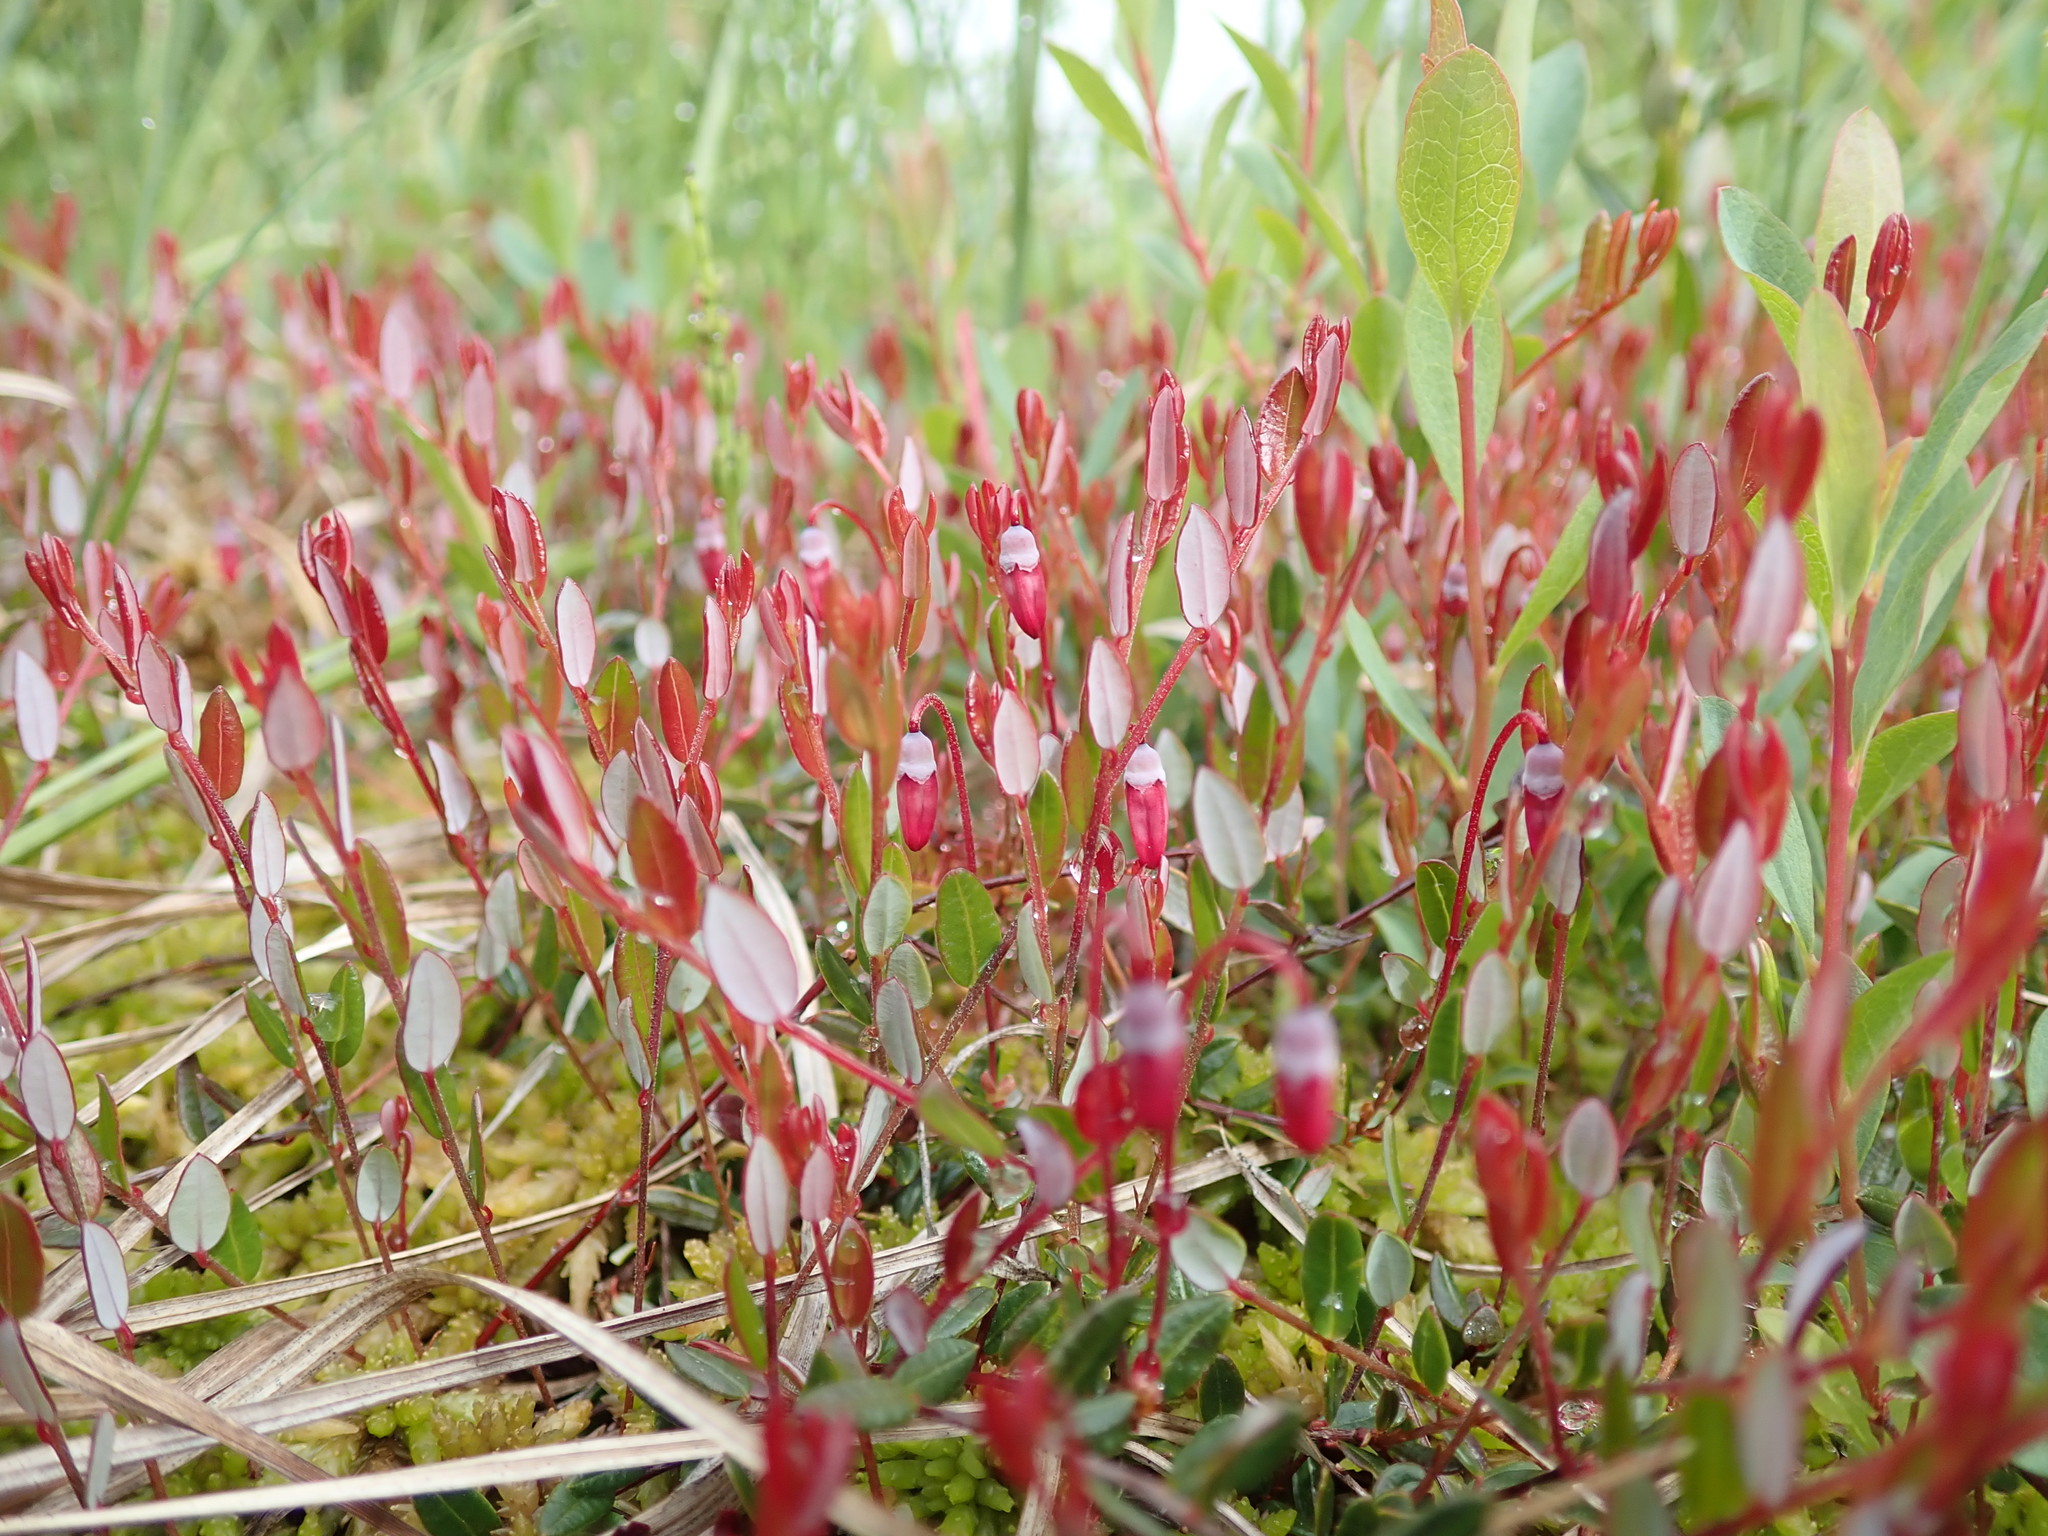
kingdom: Plantae
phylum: Tracheophyta
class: Magnoliopsida
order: Ericales
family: Ericaceae
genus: Vaccinium
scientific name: Vaccinium oxycoccos
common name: Cranberry
